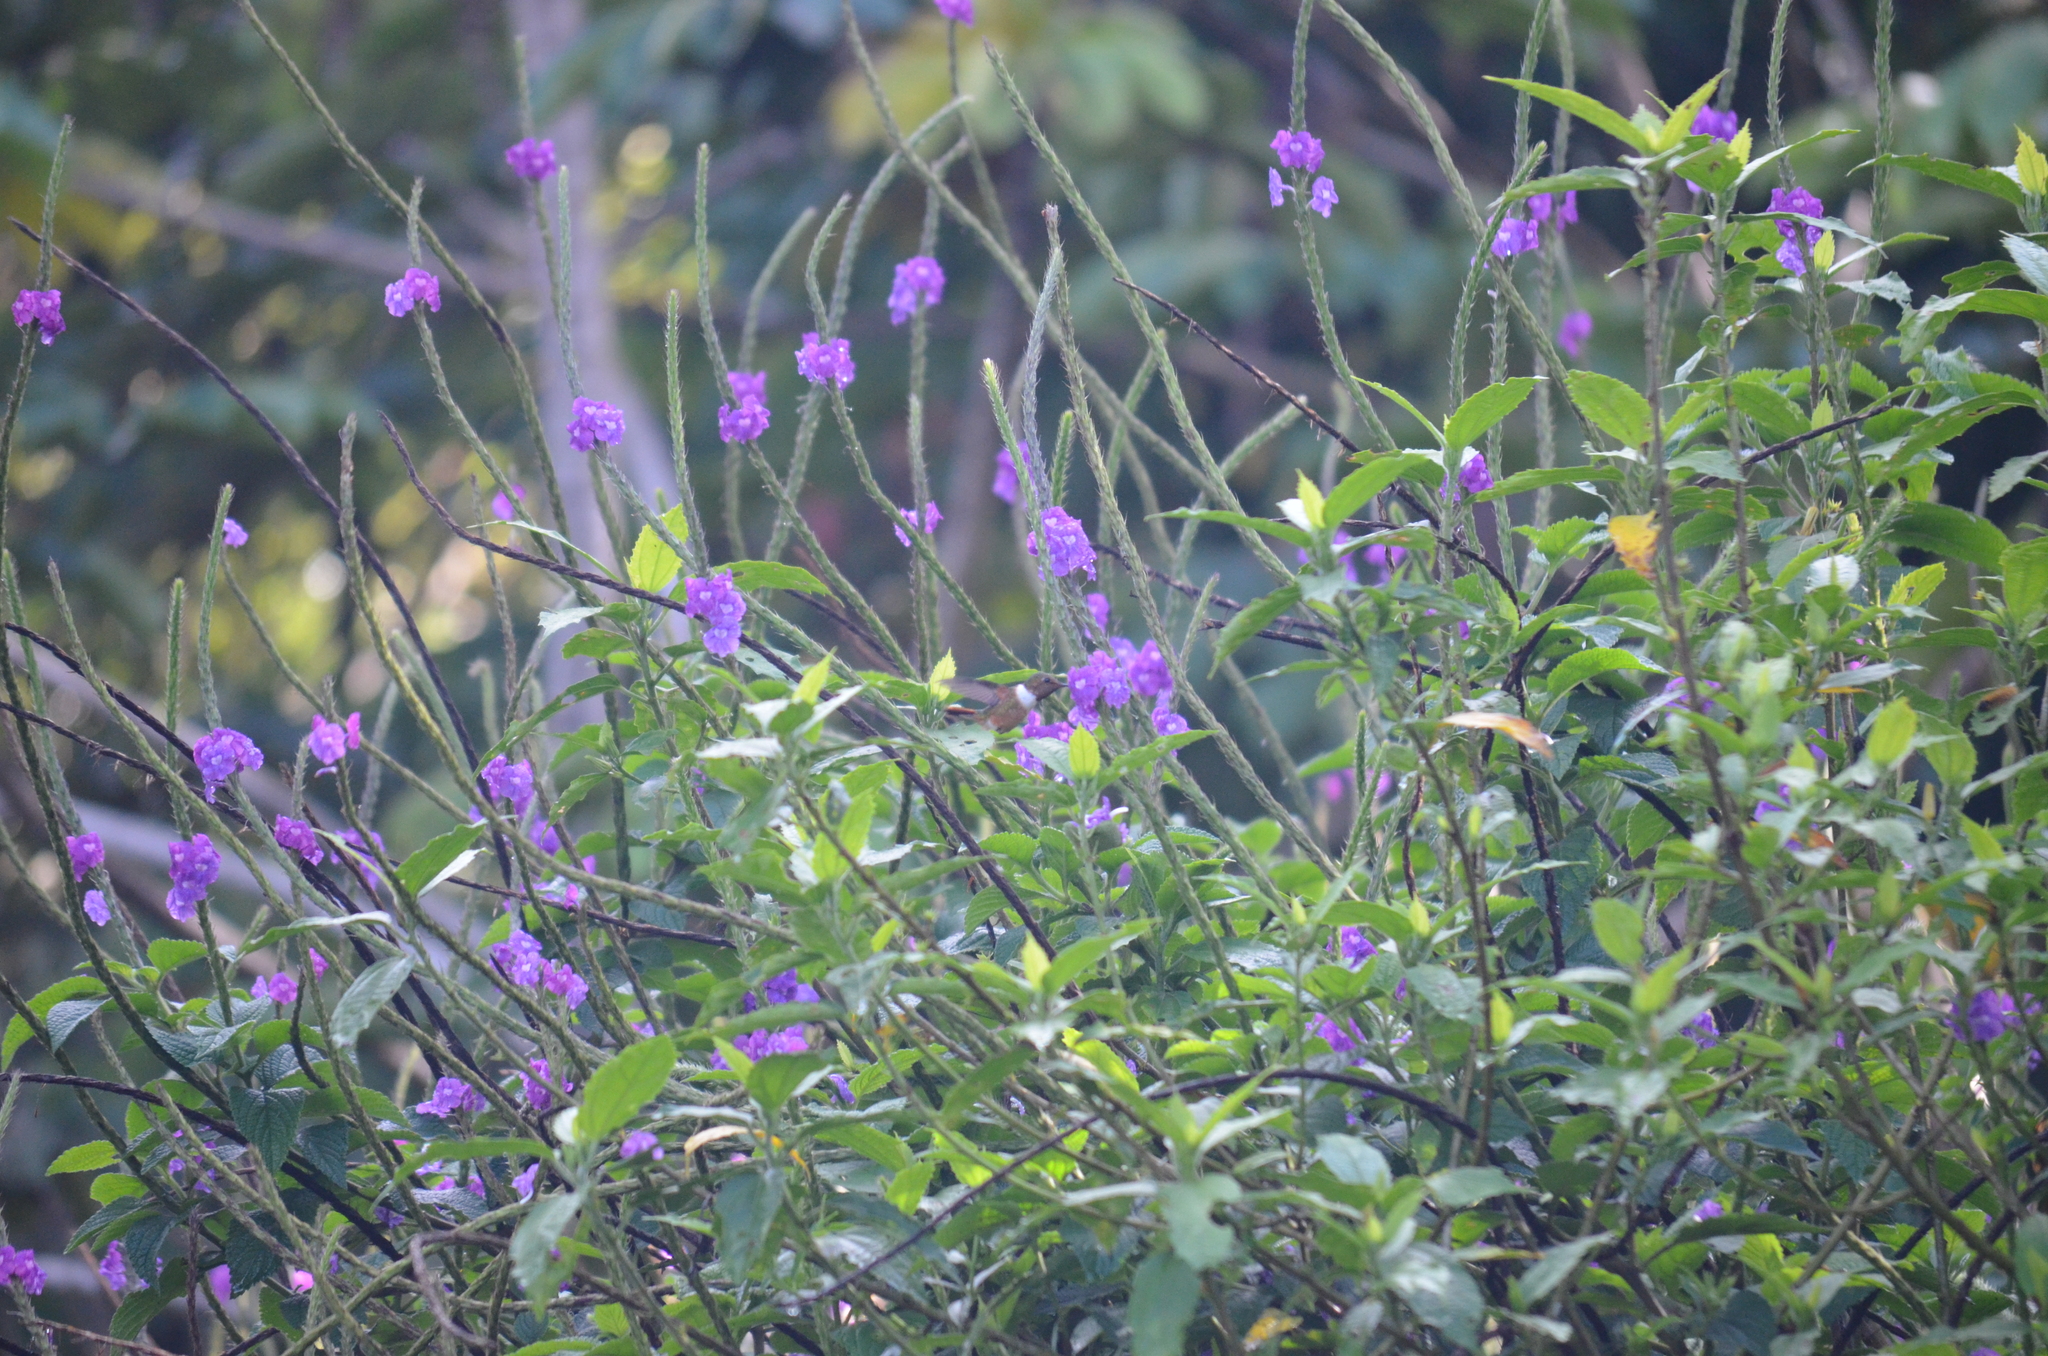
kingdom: Animalia
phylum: Chordata
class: Aves
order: Apodiformes
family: Trochilidae
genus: Selasphorus
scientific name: Selasphorus scintilla
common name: Scintillant hummingbird
